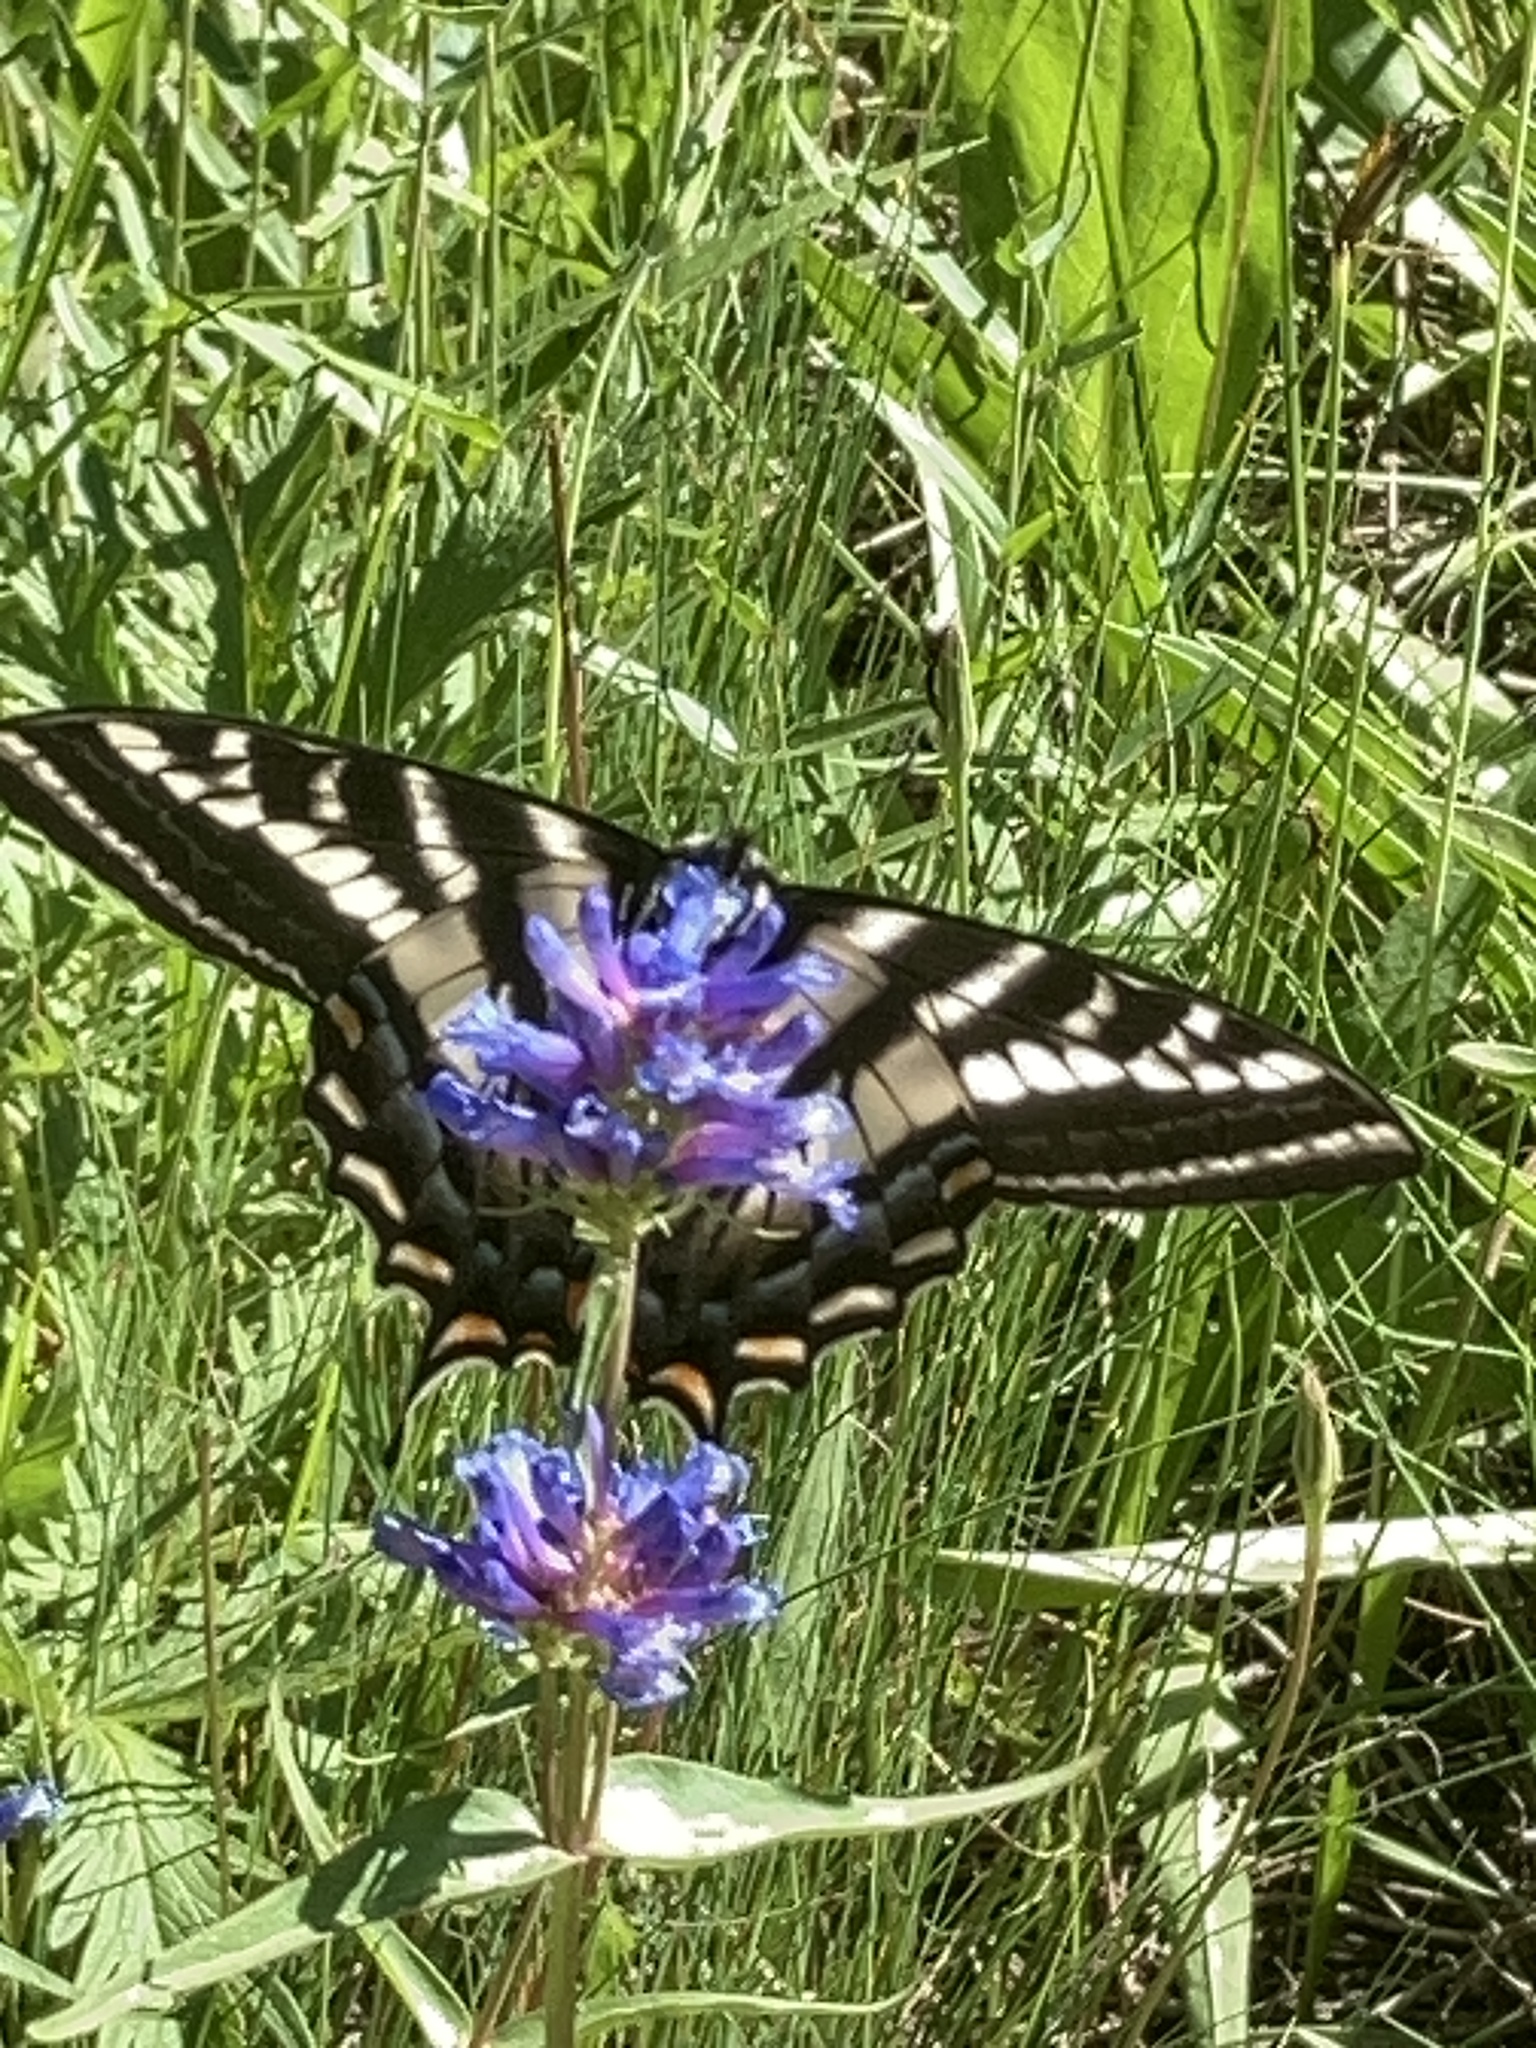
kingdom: Animalia
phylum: Arthropoda
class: Insecta
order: Lepidoptera
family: Papilionidae
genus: Papilio
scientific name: Papilio eurymedon
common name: Pale tiger swallowtail
